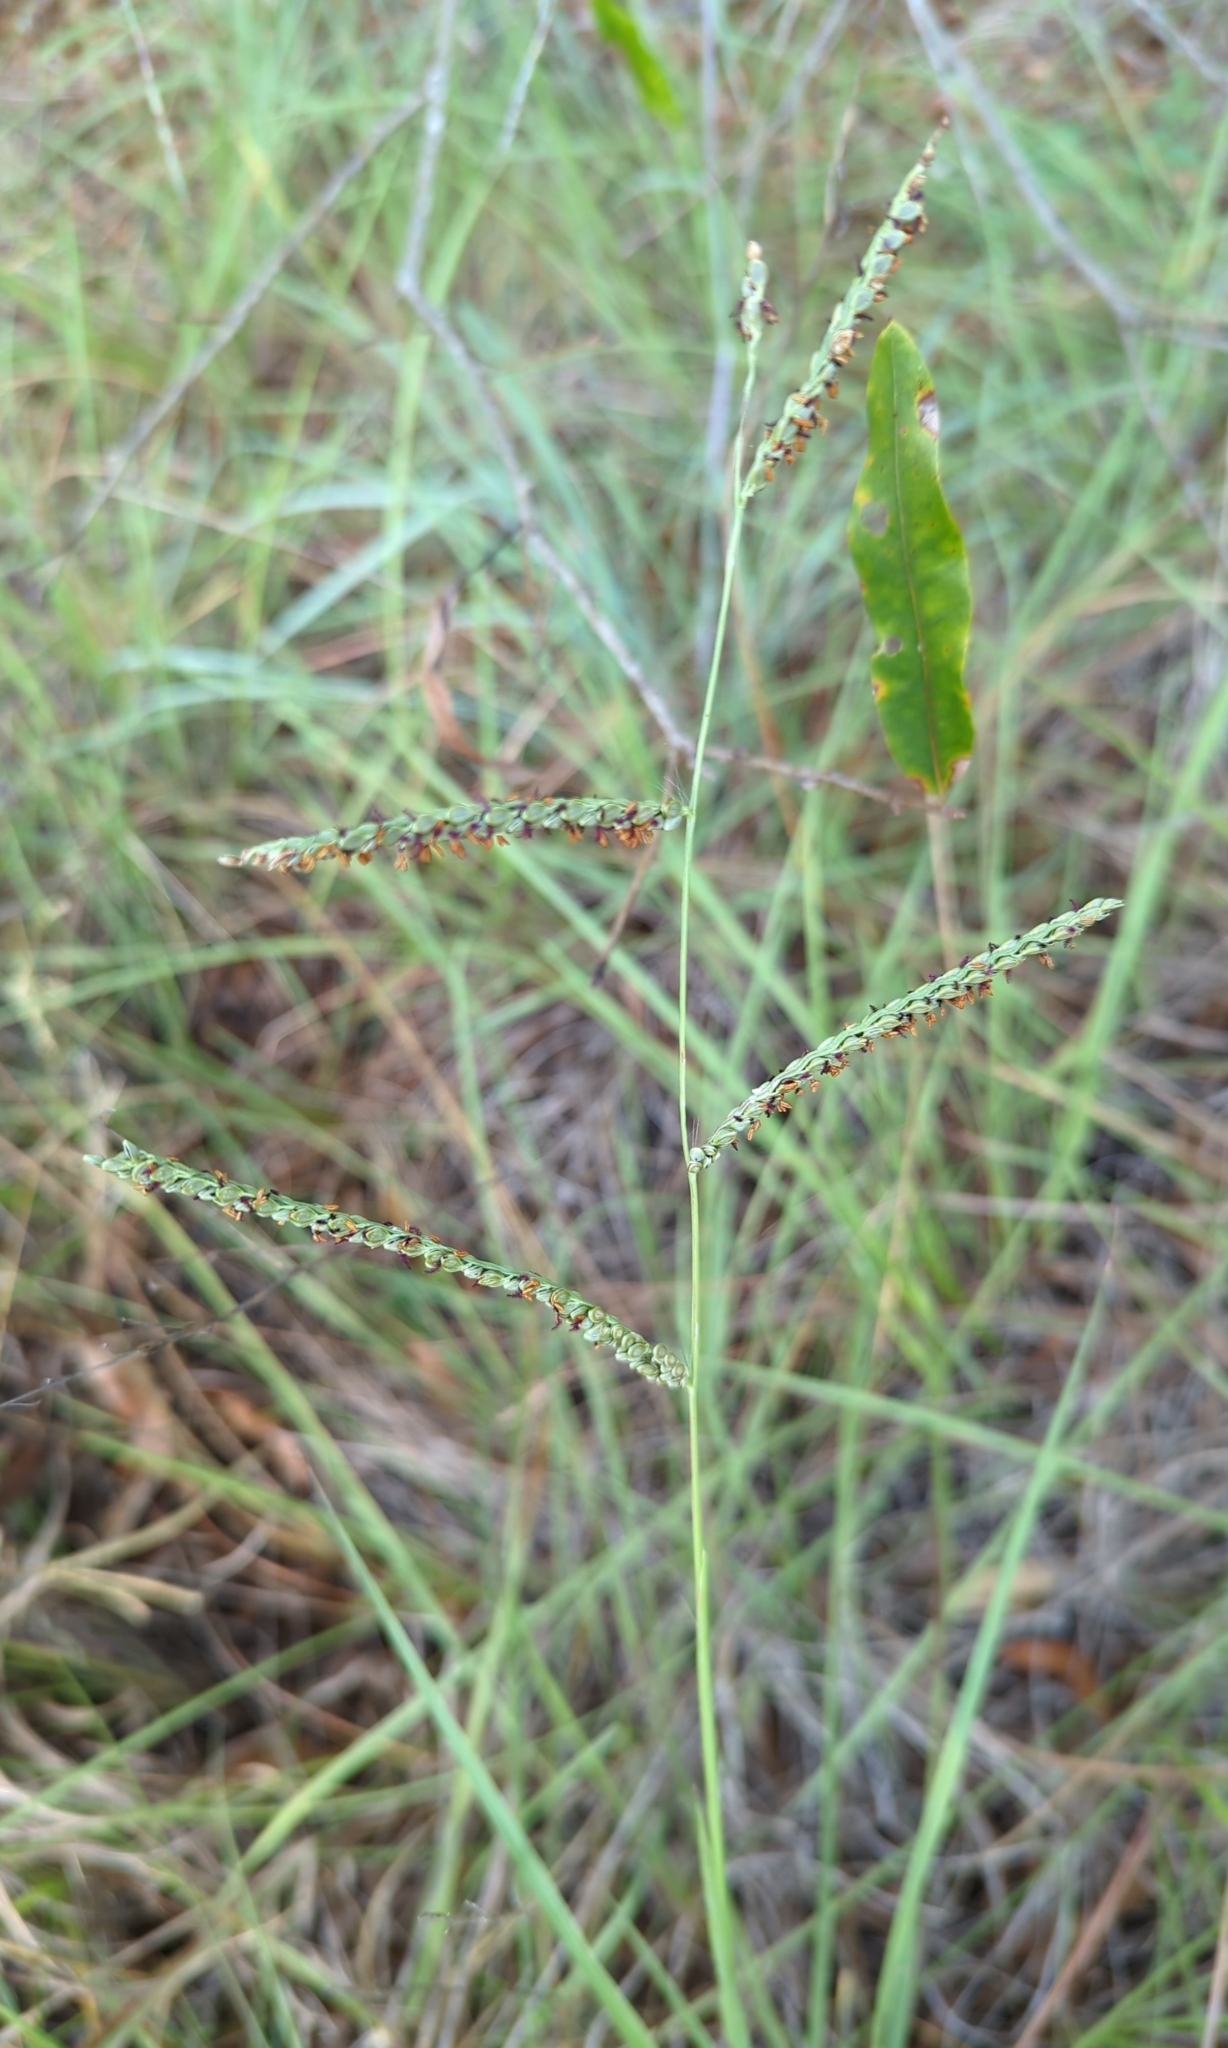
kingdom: Plantae
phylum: Tracheophyta
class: Liliopsida
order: Poales
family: Poaceae
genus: Paspalum
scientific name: Paspalum plicatulum
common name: Top paspalum
